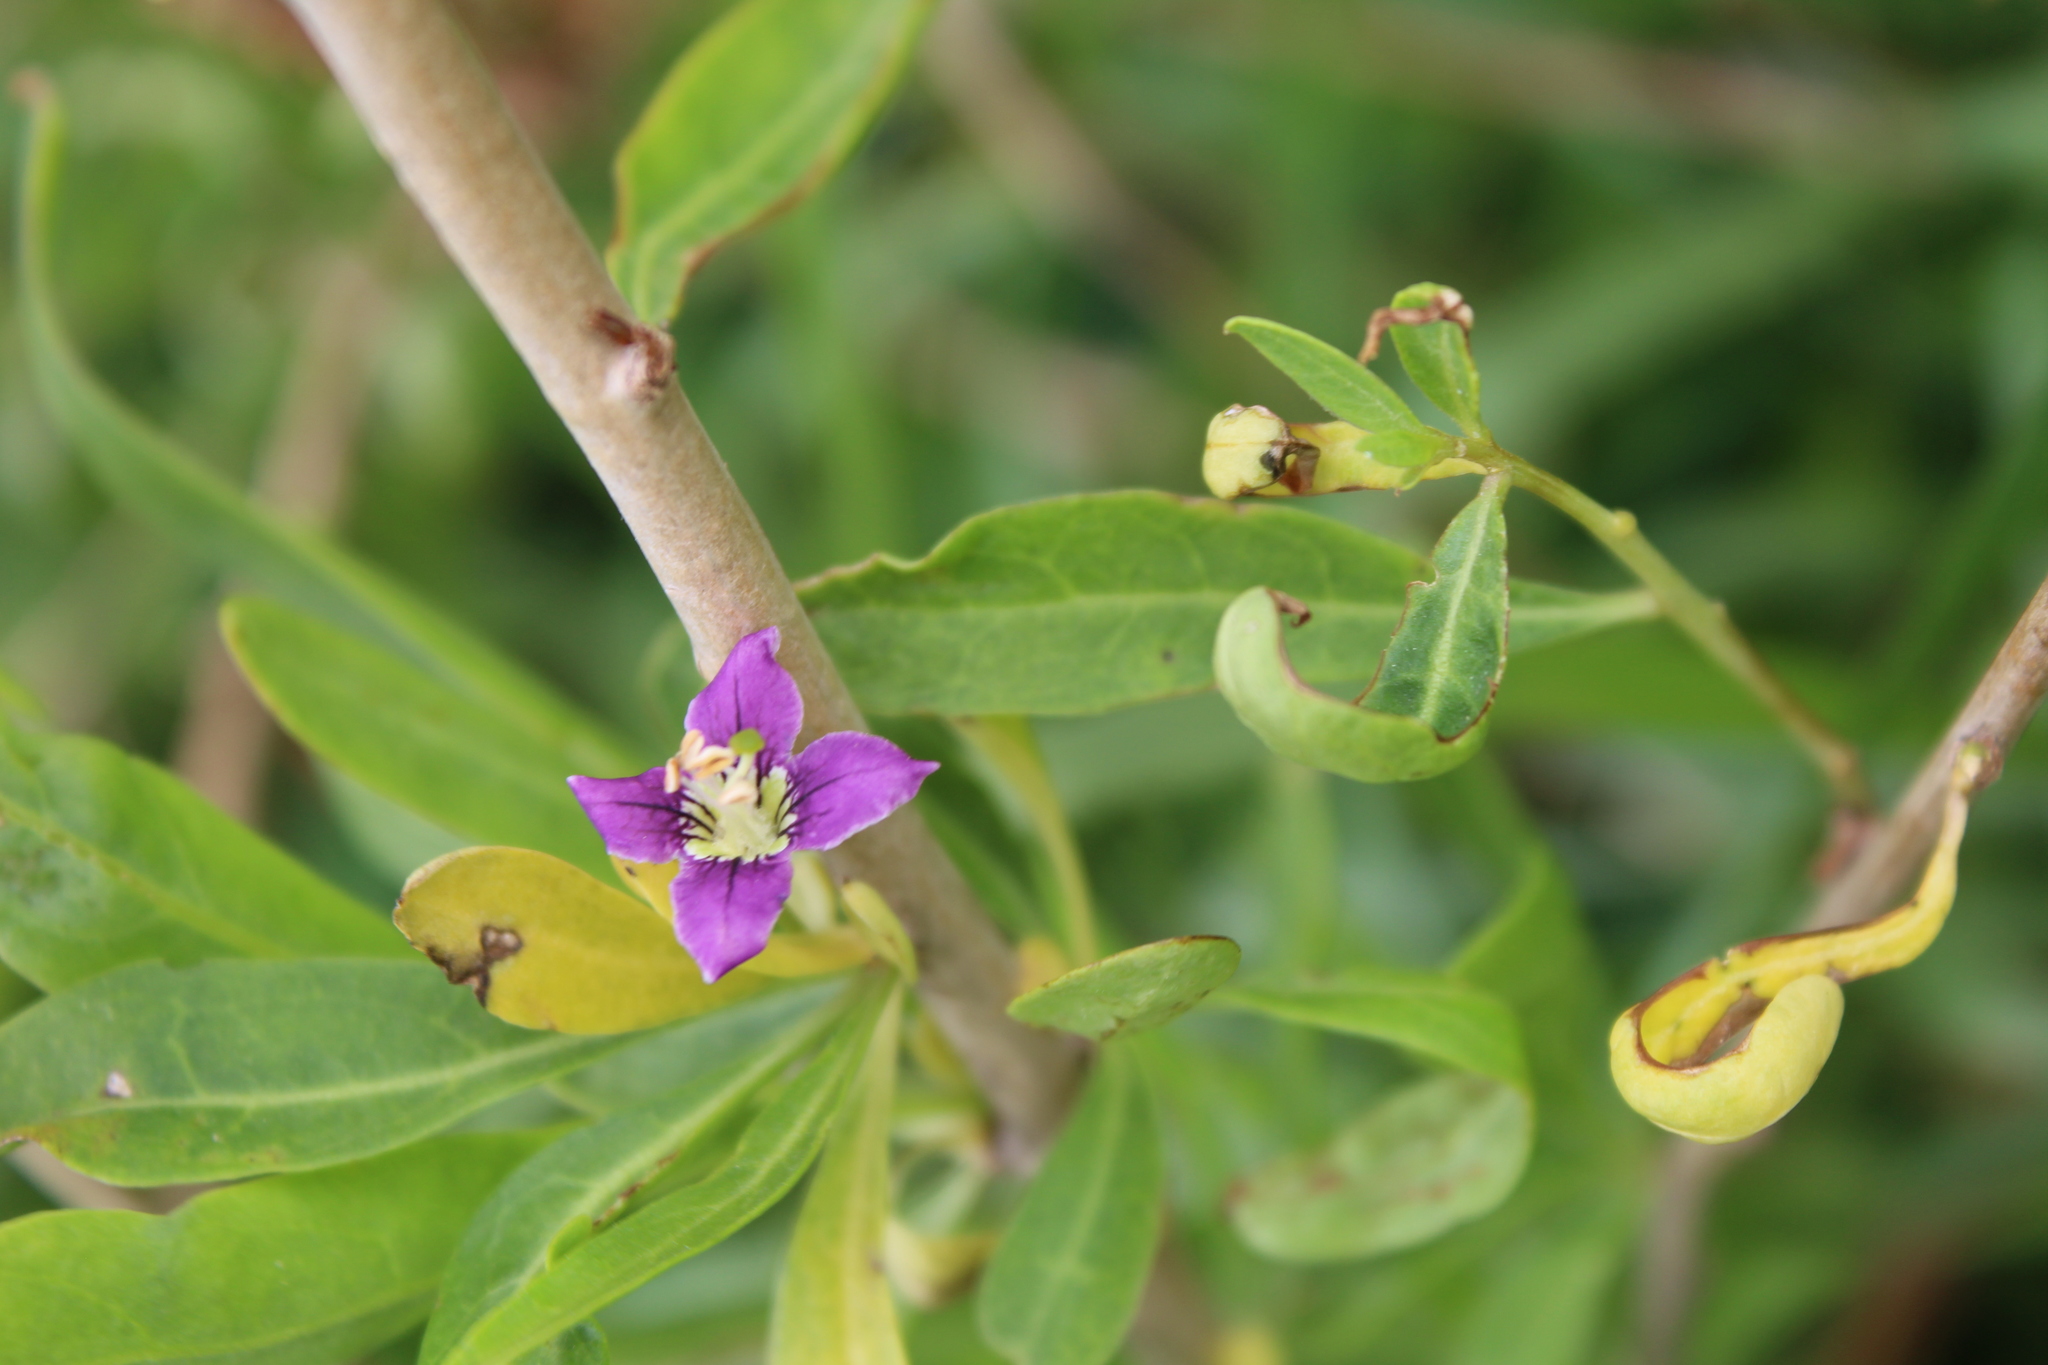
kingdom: Plantae
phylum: Tracheophyta
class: Magnoliopsida
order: Solanales
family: Solanaceae
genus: Lycium
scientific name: Lycium barbarum
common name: Duke of argyll's teaplant
